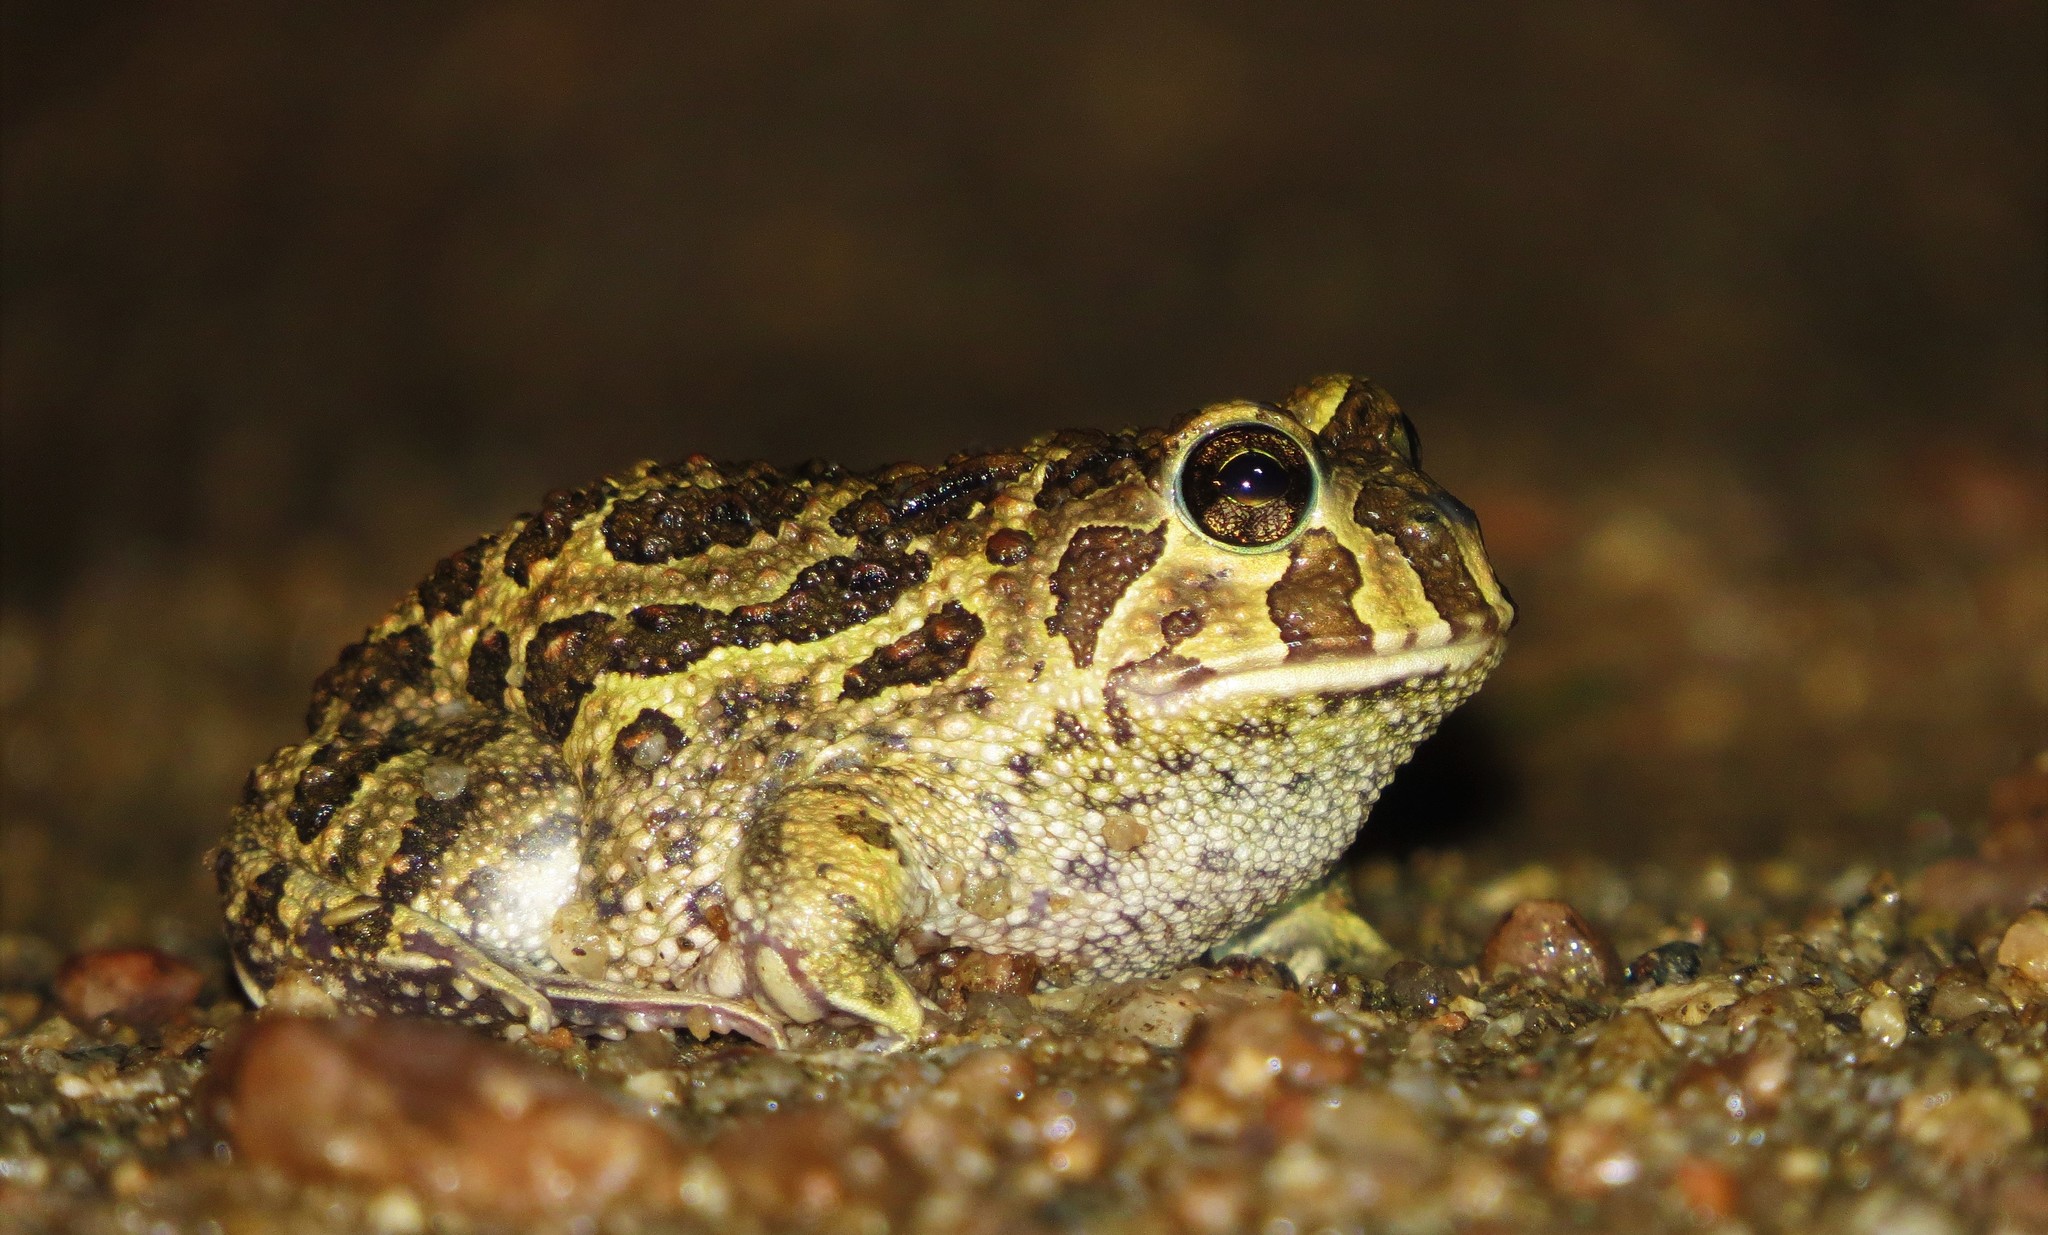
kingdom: Animalia
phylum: Chordata
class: Amphibia
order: Anura
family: Odontophrynidae
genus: Odontophrynus
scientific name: Odontophrynus
